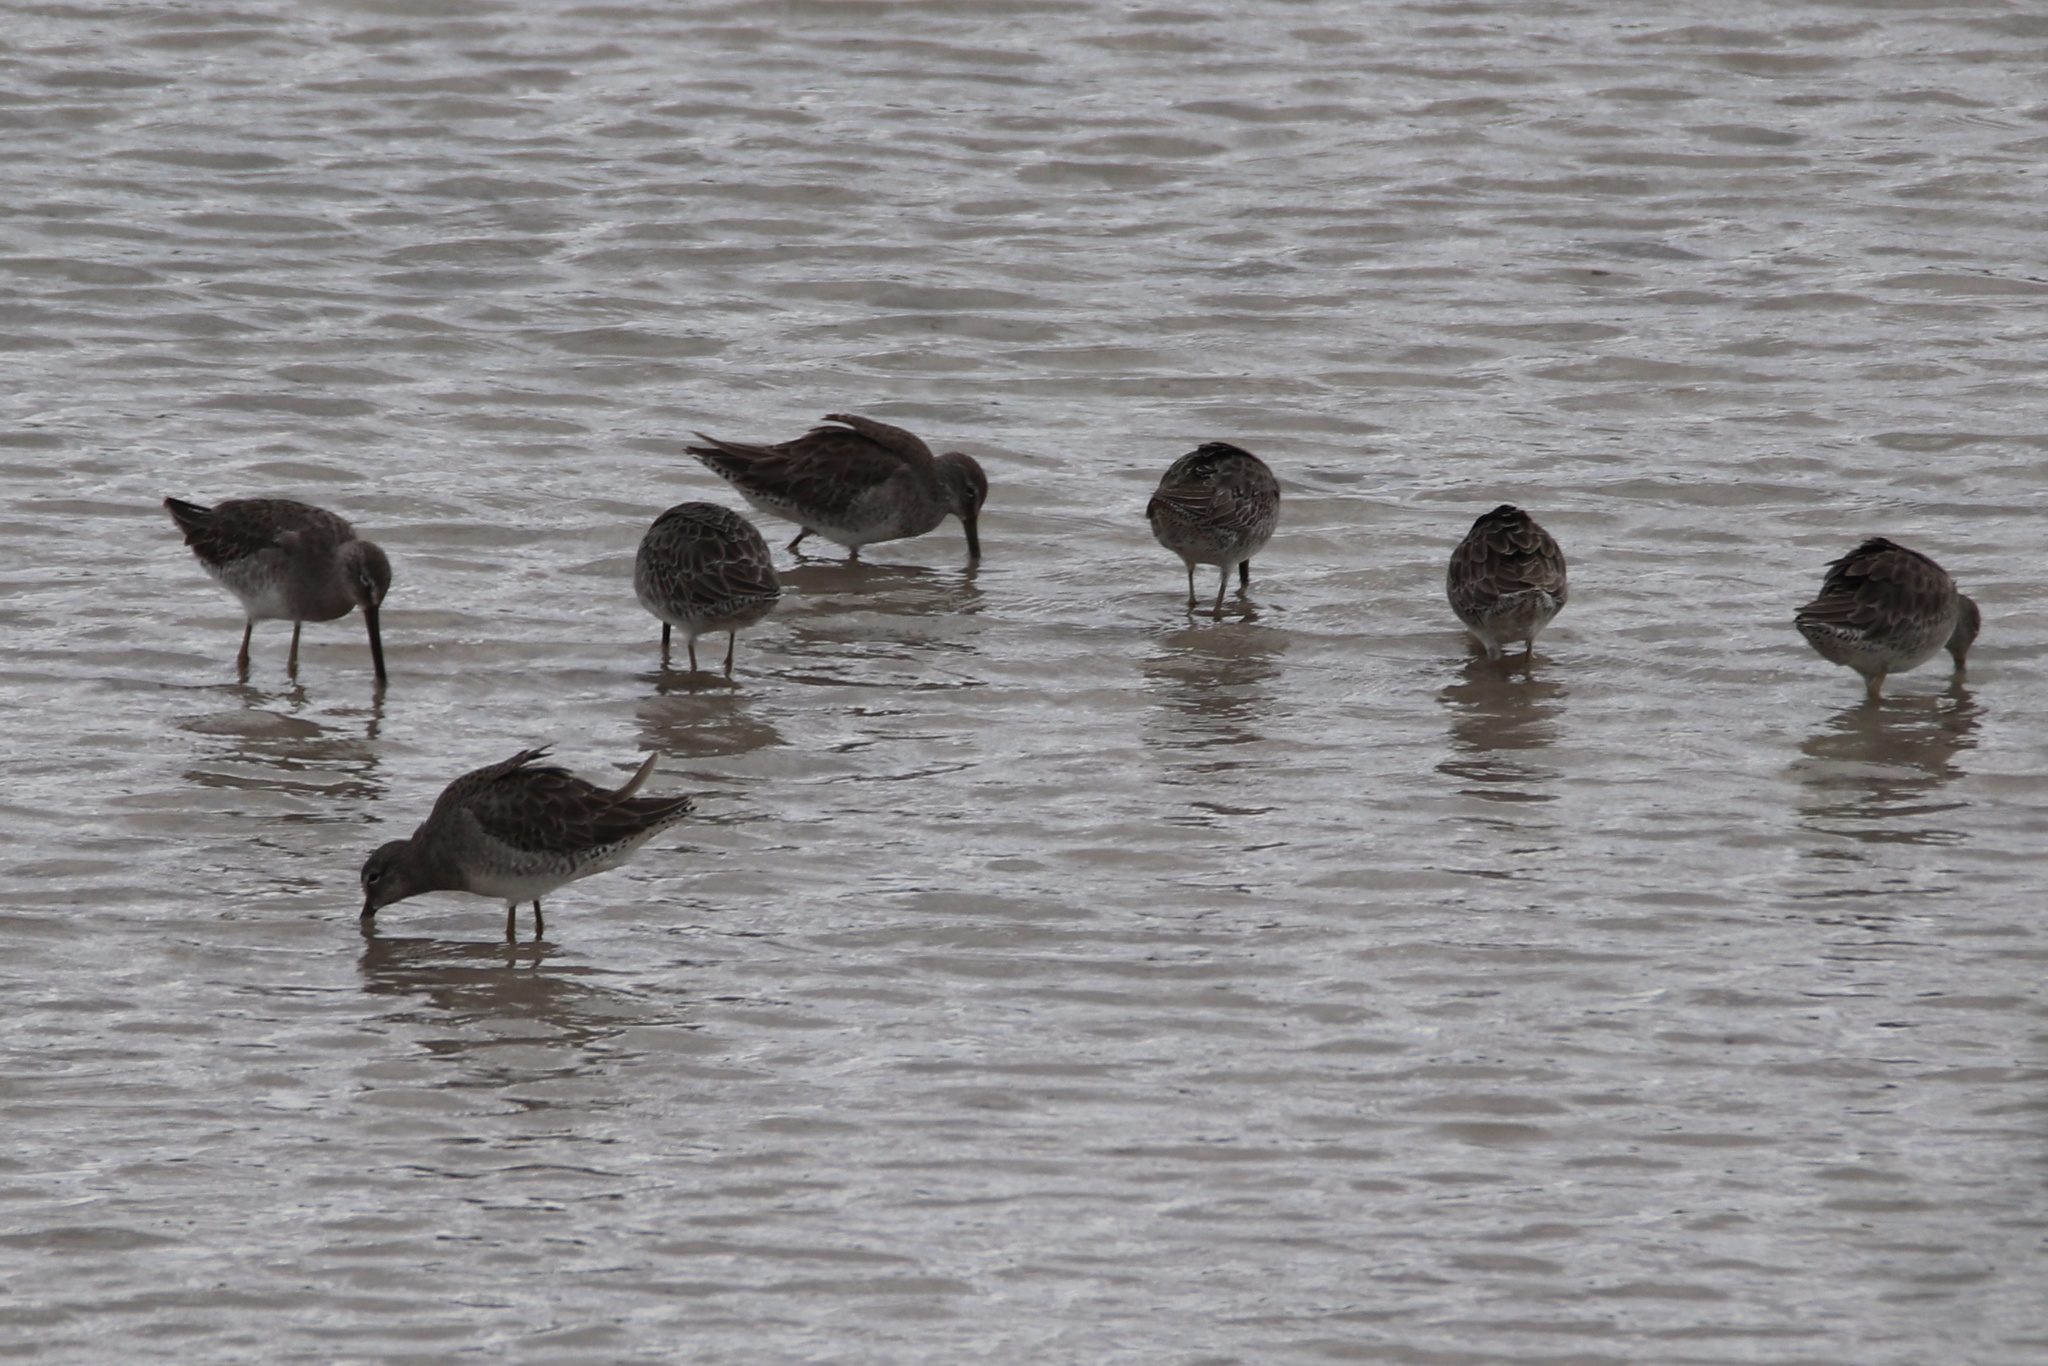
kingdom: Animalia
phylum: Chordata
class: Aves
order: Charadriiformes
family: Scolopacidae
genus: Limnodromus
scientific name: Limnodromus scolopaceus
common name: Long-billed dowitcher
